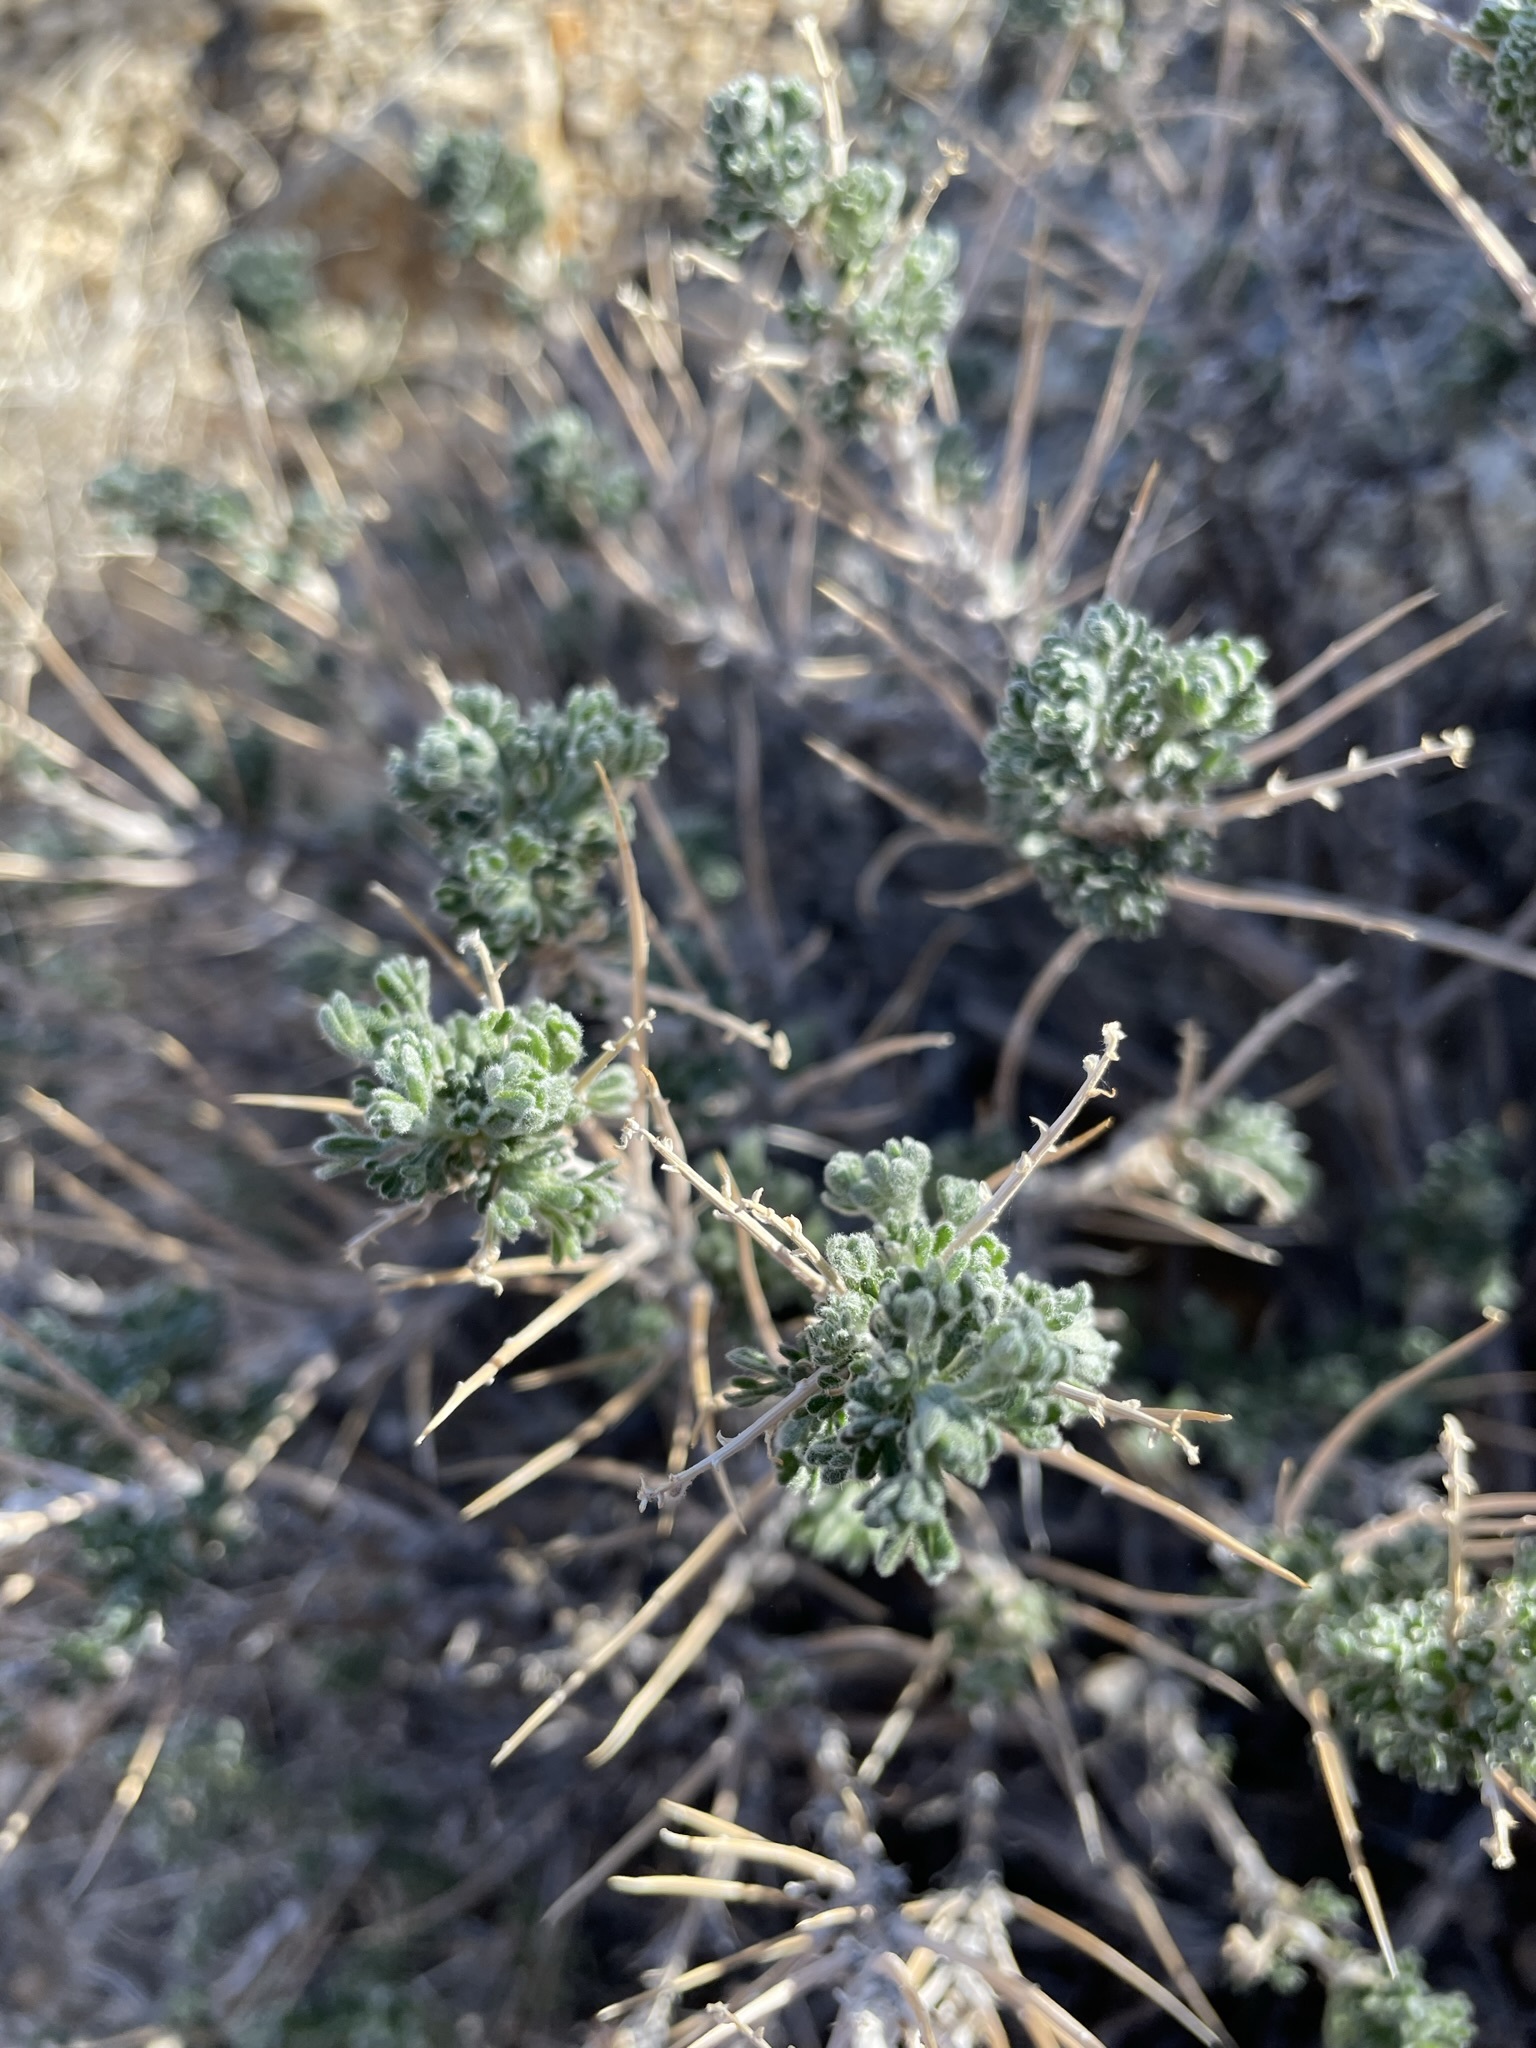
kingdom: Plantae
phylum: Tracheophyta
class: Magnoliopsida
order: Asterales
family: Asteraceae
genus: Artemisia
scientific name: Artemisia spinescens
